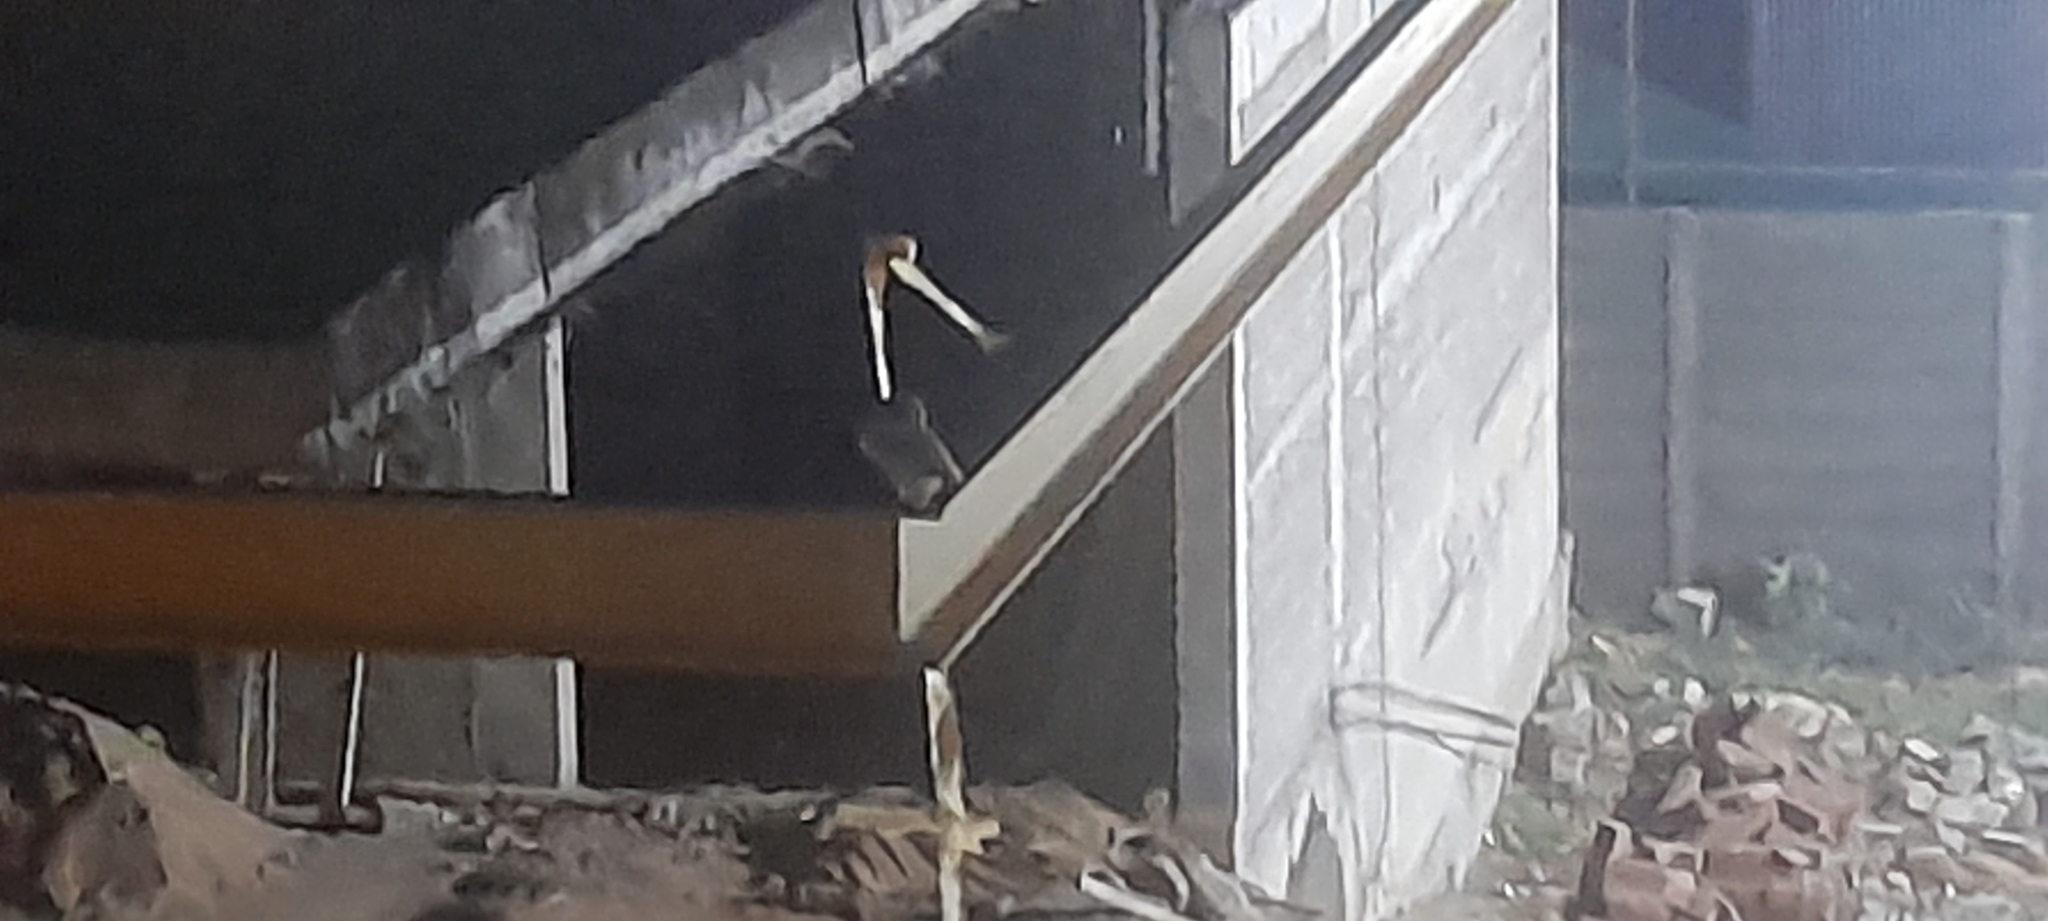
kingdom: Animalia
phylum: Chordata
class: Aves
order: Strigiformes
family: Strigidae
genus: Athene
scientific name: Athene brama
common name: Spotted owlet
